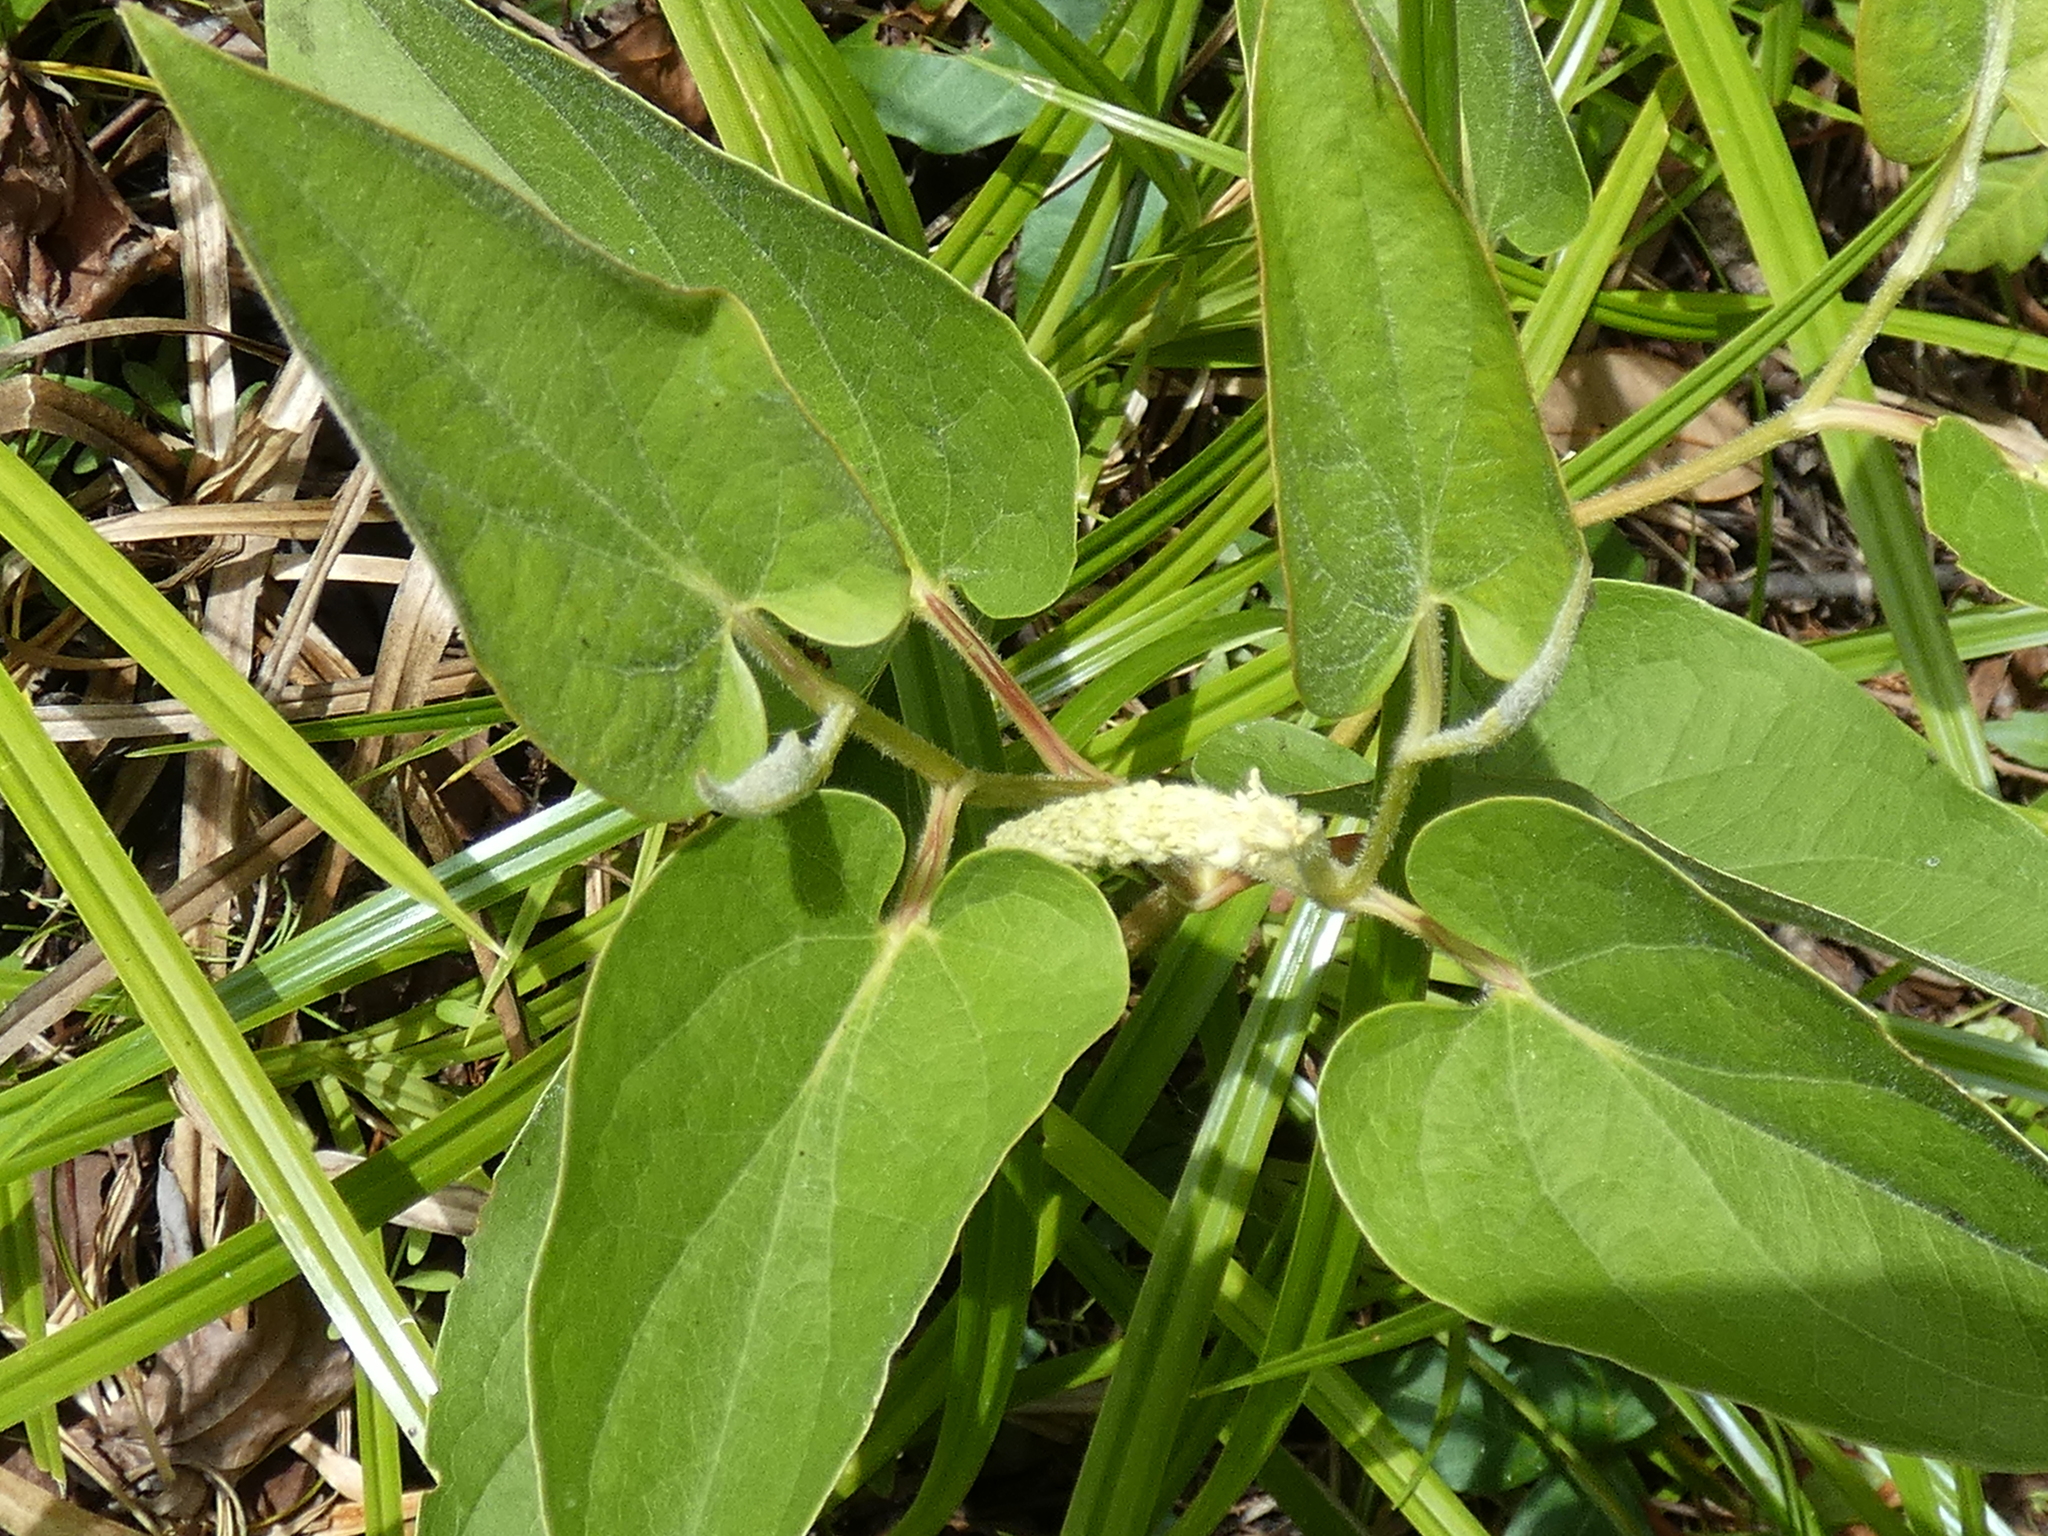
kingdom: Plantae
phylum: Tracheophyta
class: Magnoliopsida
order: Piperales
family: Saururaceae
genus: Saururus
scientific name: Saururus cernuus
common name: Lizard's-tail
